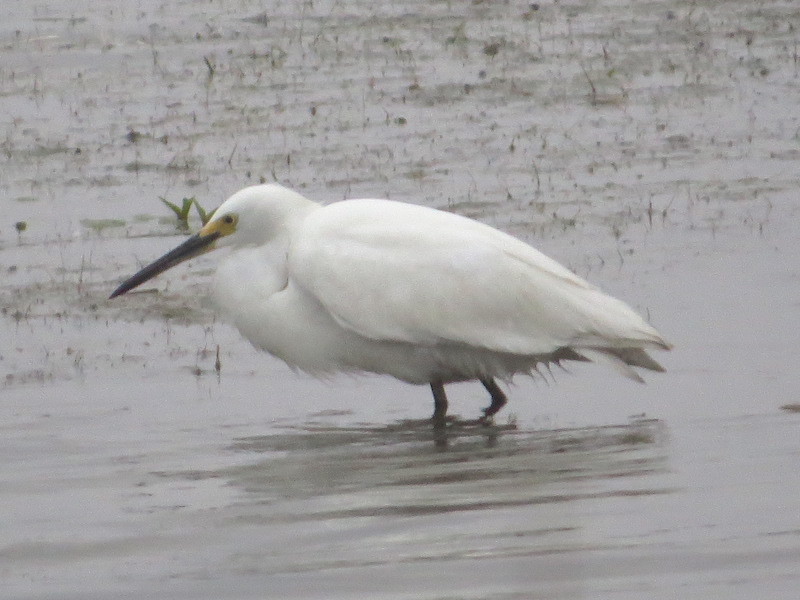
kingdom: Animalia
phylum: Chordata
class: Aves
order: Pelecaniformes
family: Ardeidae
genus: Egretta
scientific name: Egretta thula
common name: Snowy egret
